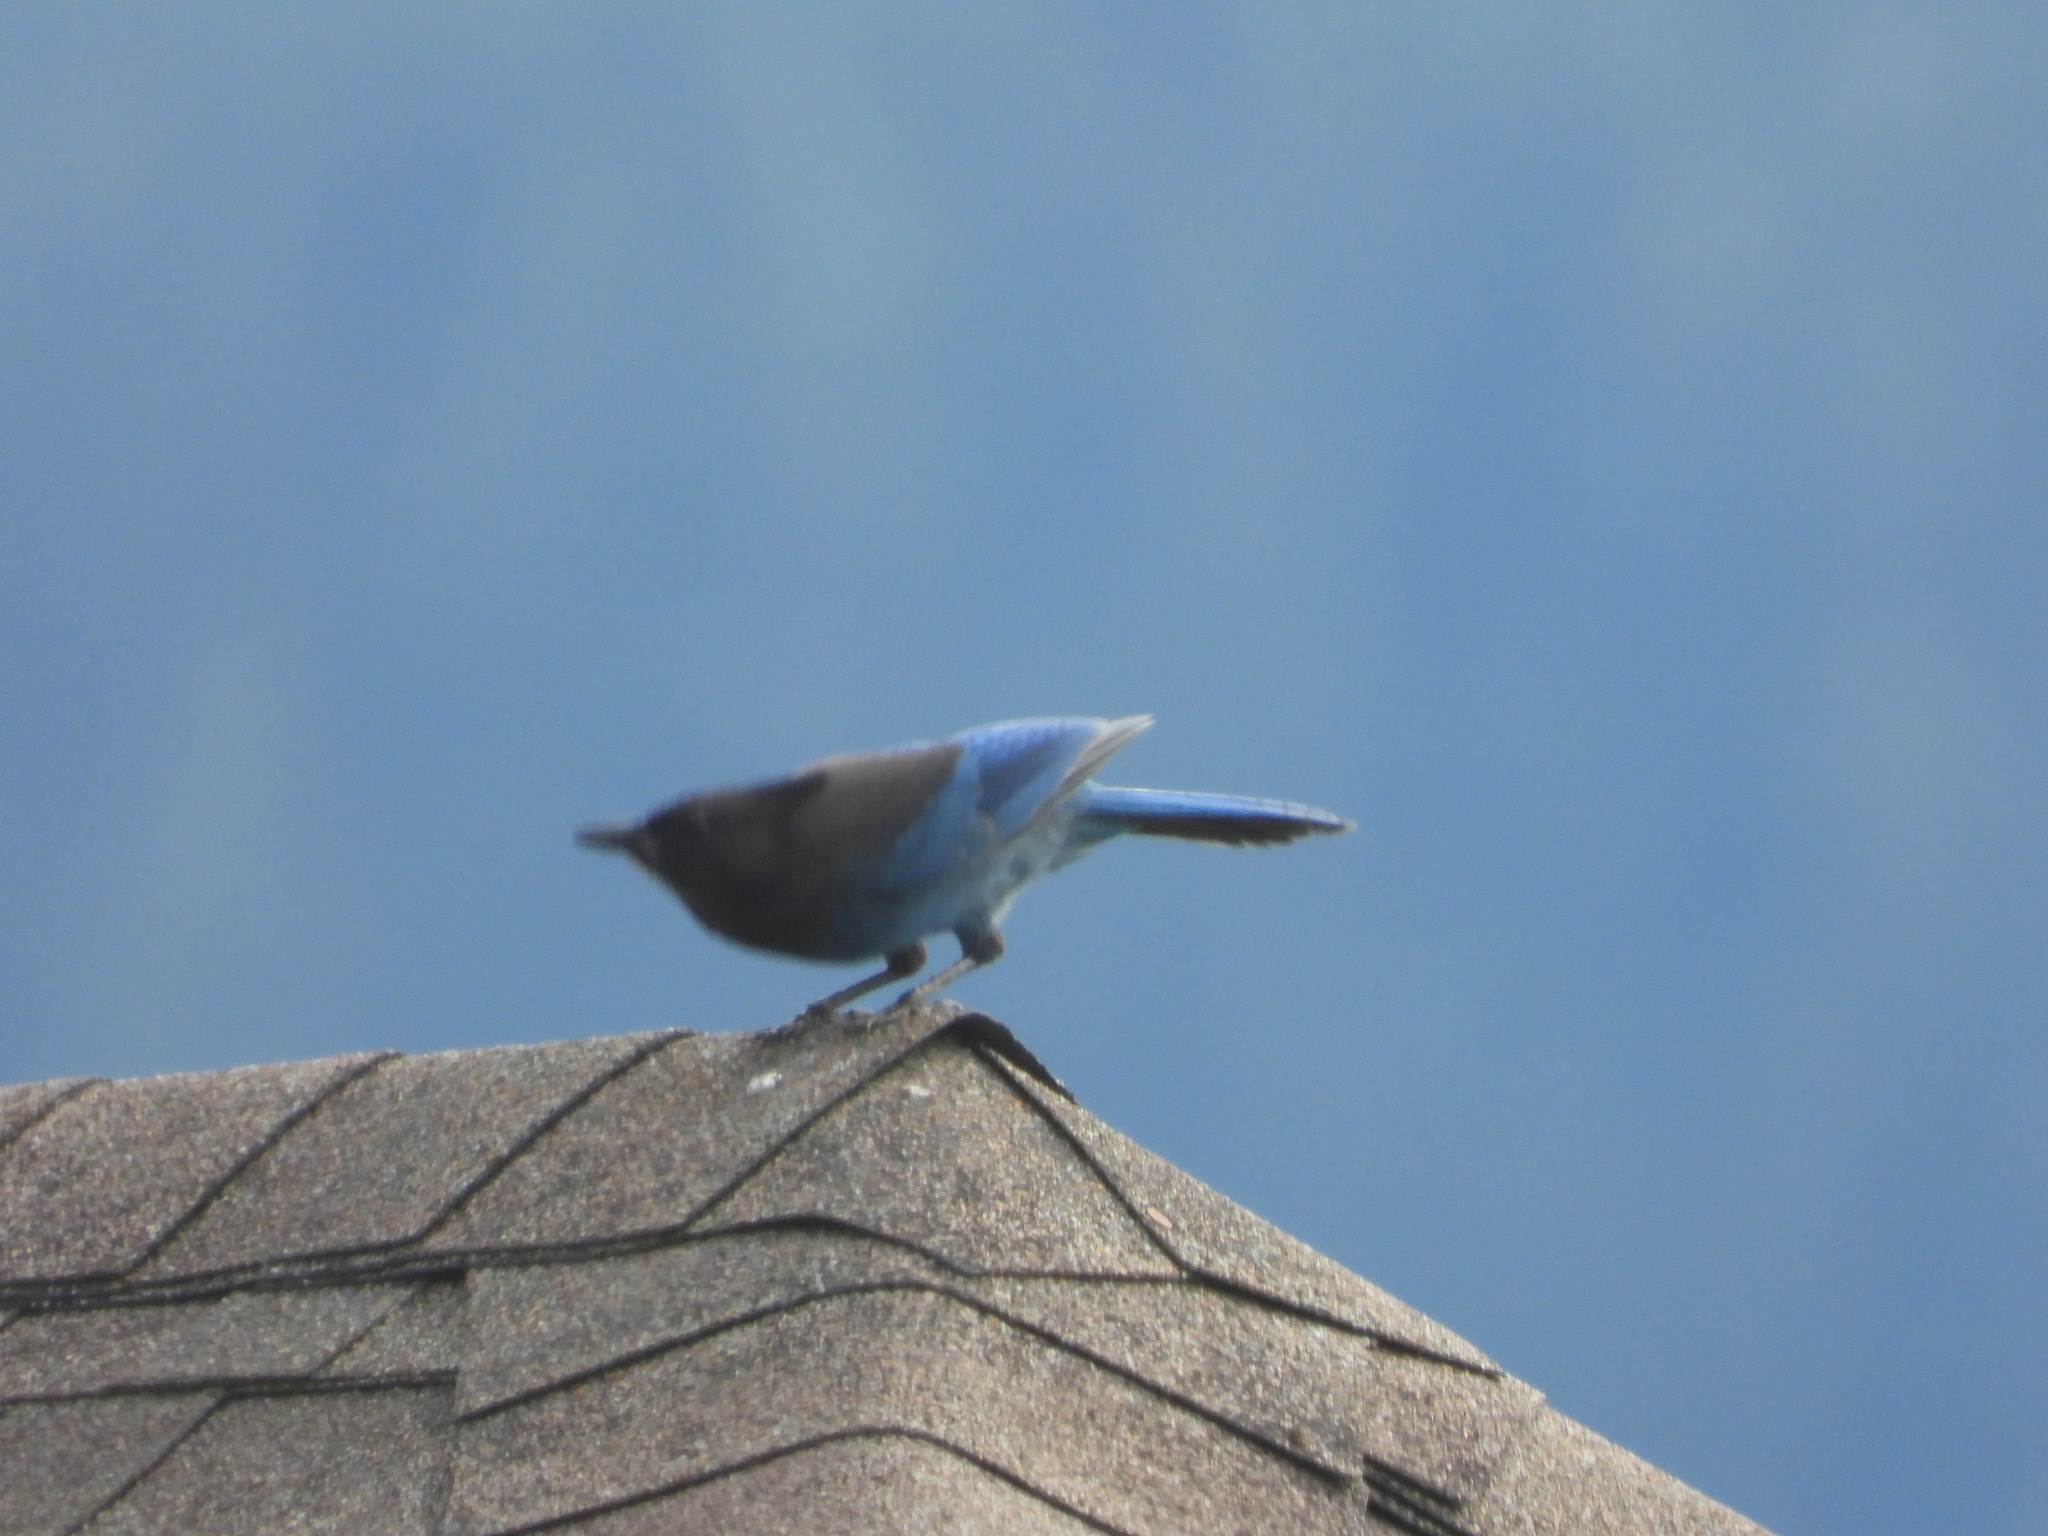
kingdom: Animalia
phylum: Chordata
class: Aves
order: Passeriformes
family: Corvidae
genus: Cyanocitta
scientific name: Cyanocitta stelleri
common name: Steller's jay
